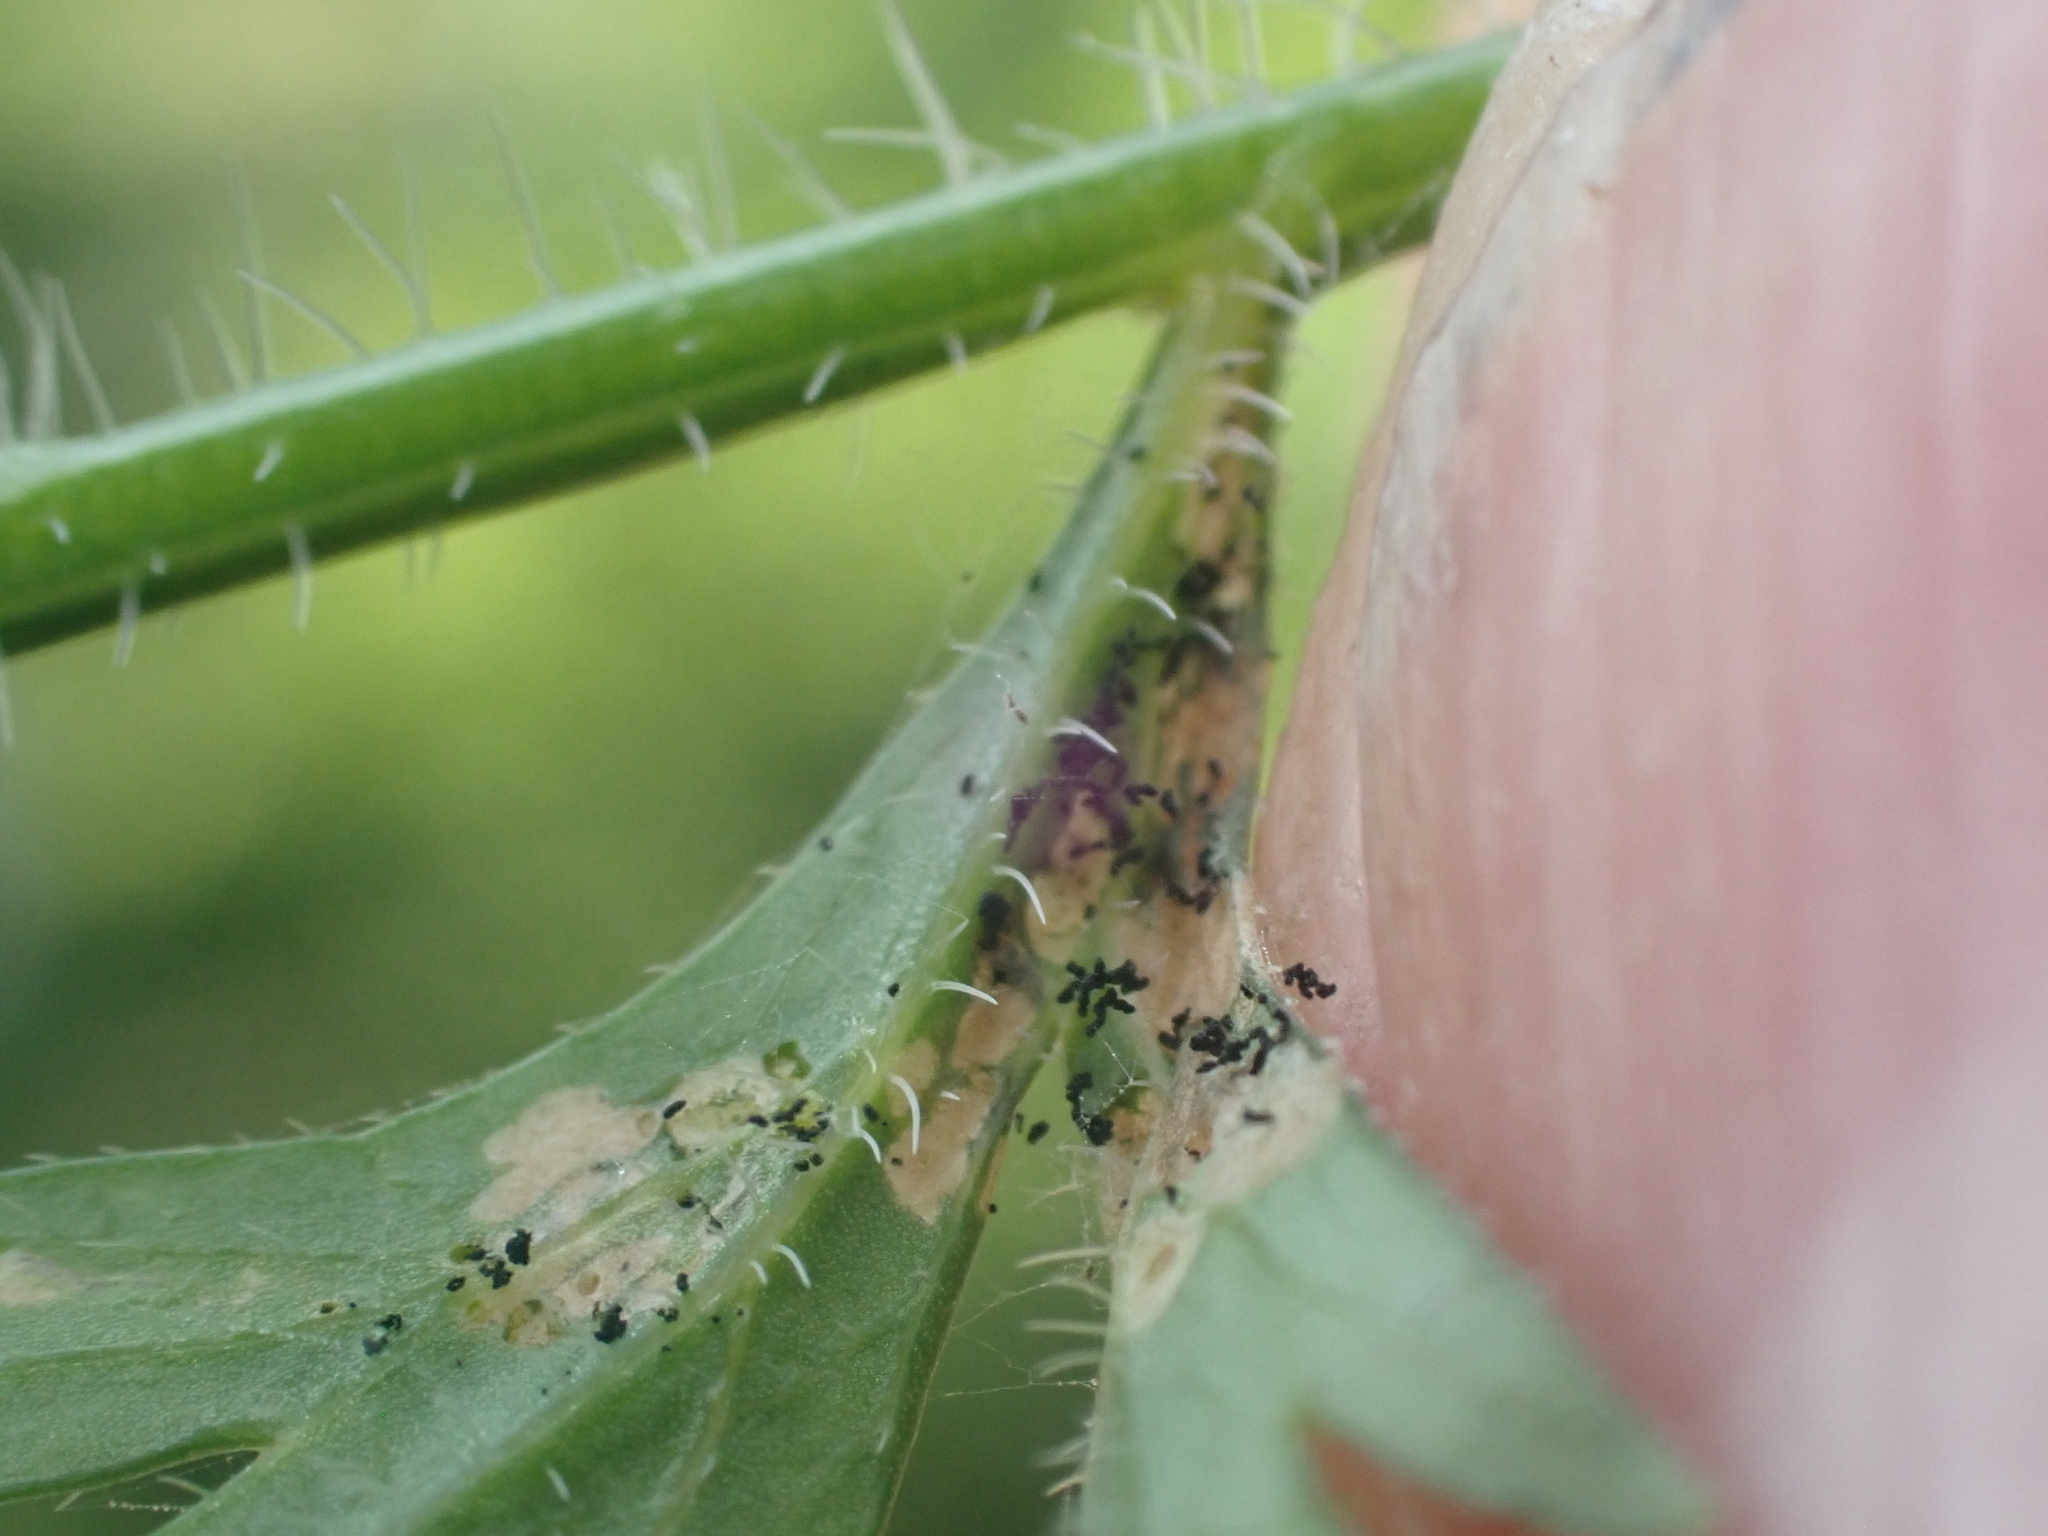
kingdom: Animalia
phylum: Arthropoda
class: Insecta
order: Lepidoptera
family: Epermeniidae
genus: Epermenia
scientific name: Epermenia albapunctella
